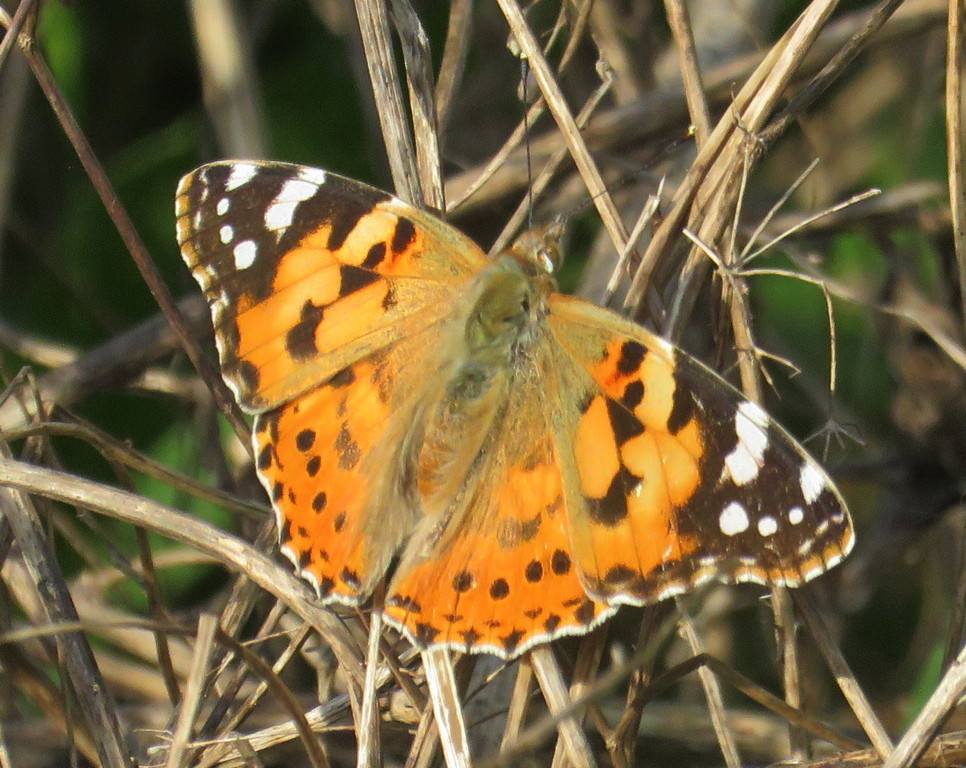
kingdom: Animalia
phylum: Arthropoda
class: Insecta
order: Lepidoptera
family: Nymphalidae
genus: Vanessa
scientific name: Vanessa cardui
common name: Painted lady
